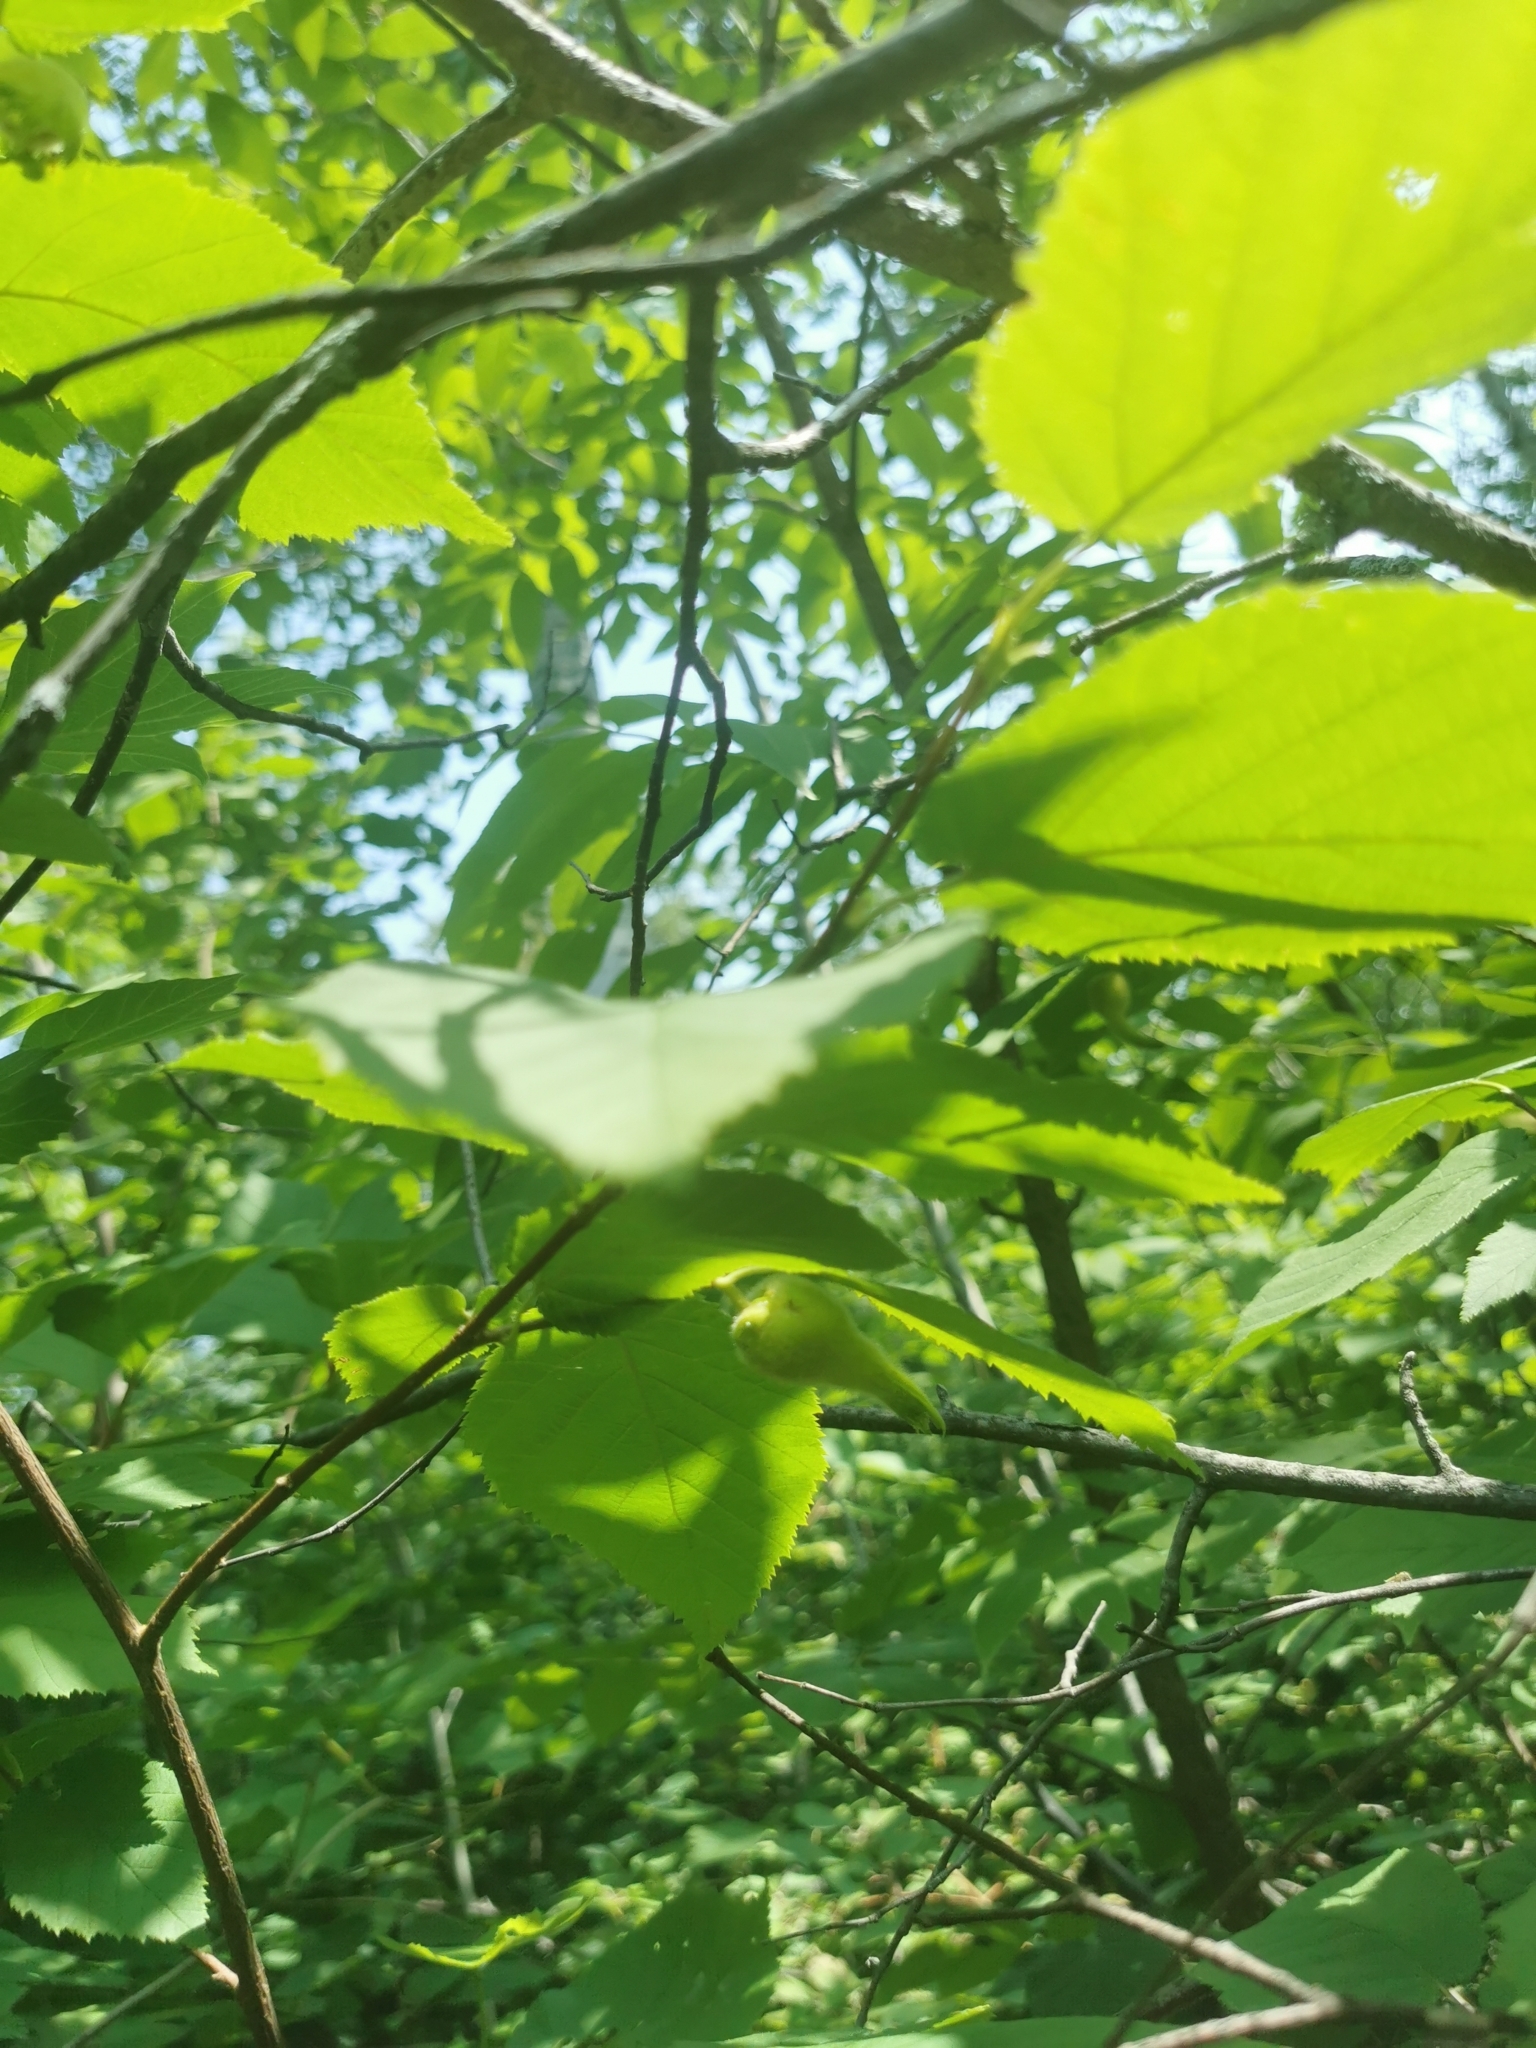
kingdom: Plantae
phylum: Tracheophyta
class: Magnoliopsida
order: Fagales
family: Betulaceae
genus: Corylus
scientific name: Corylus cornuta
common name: Beaked hazel
